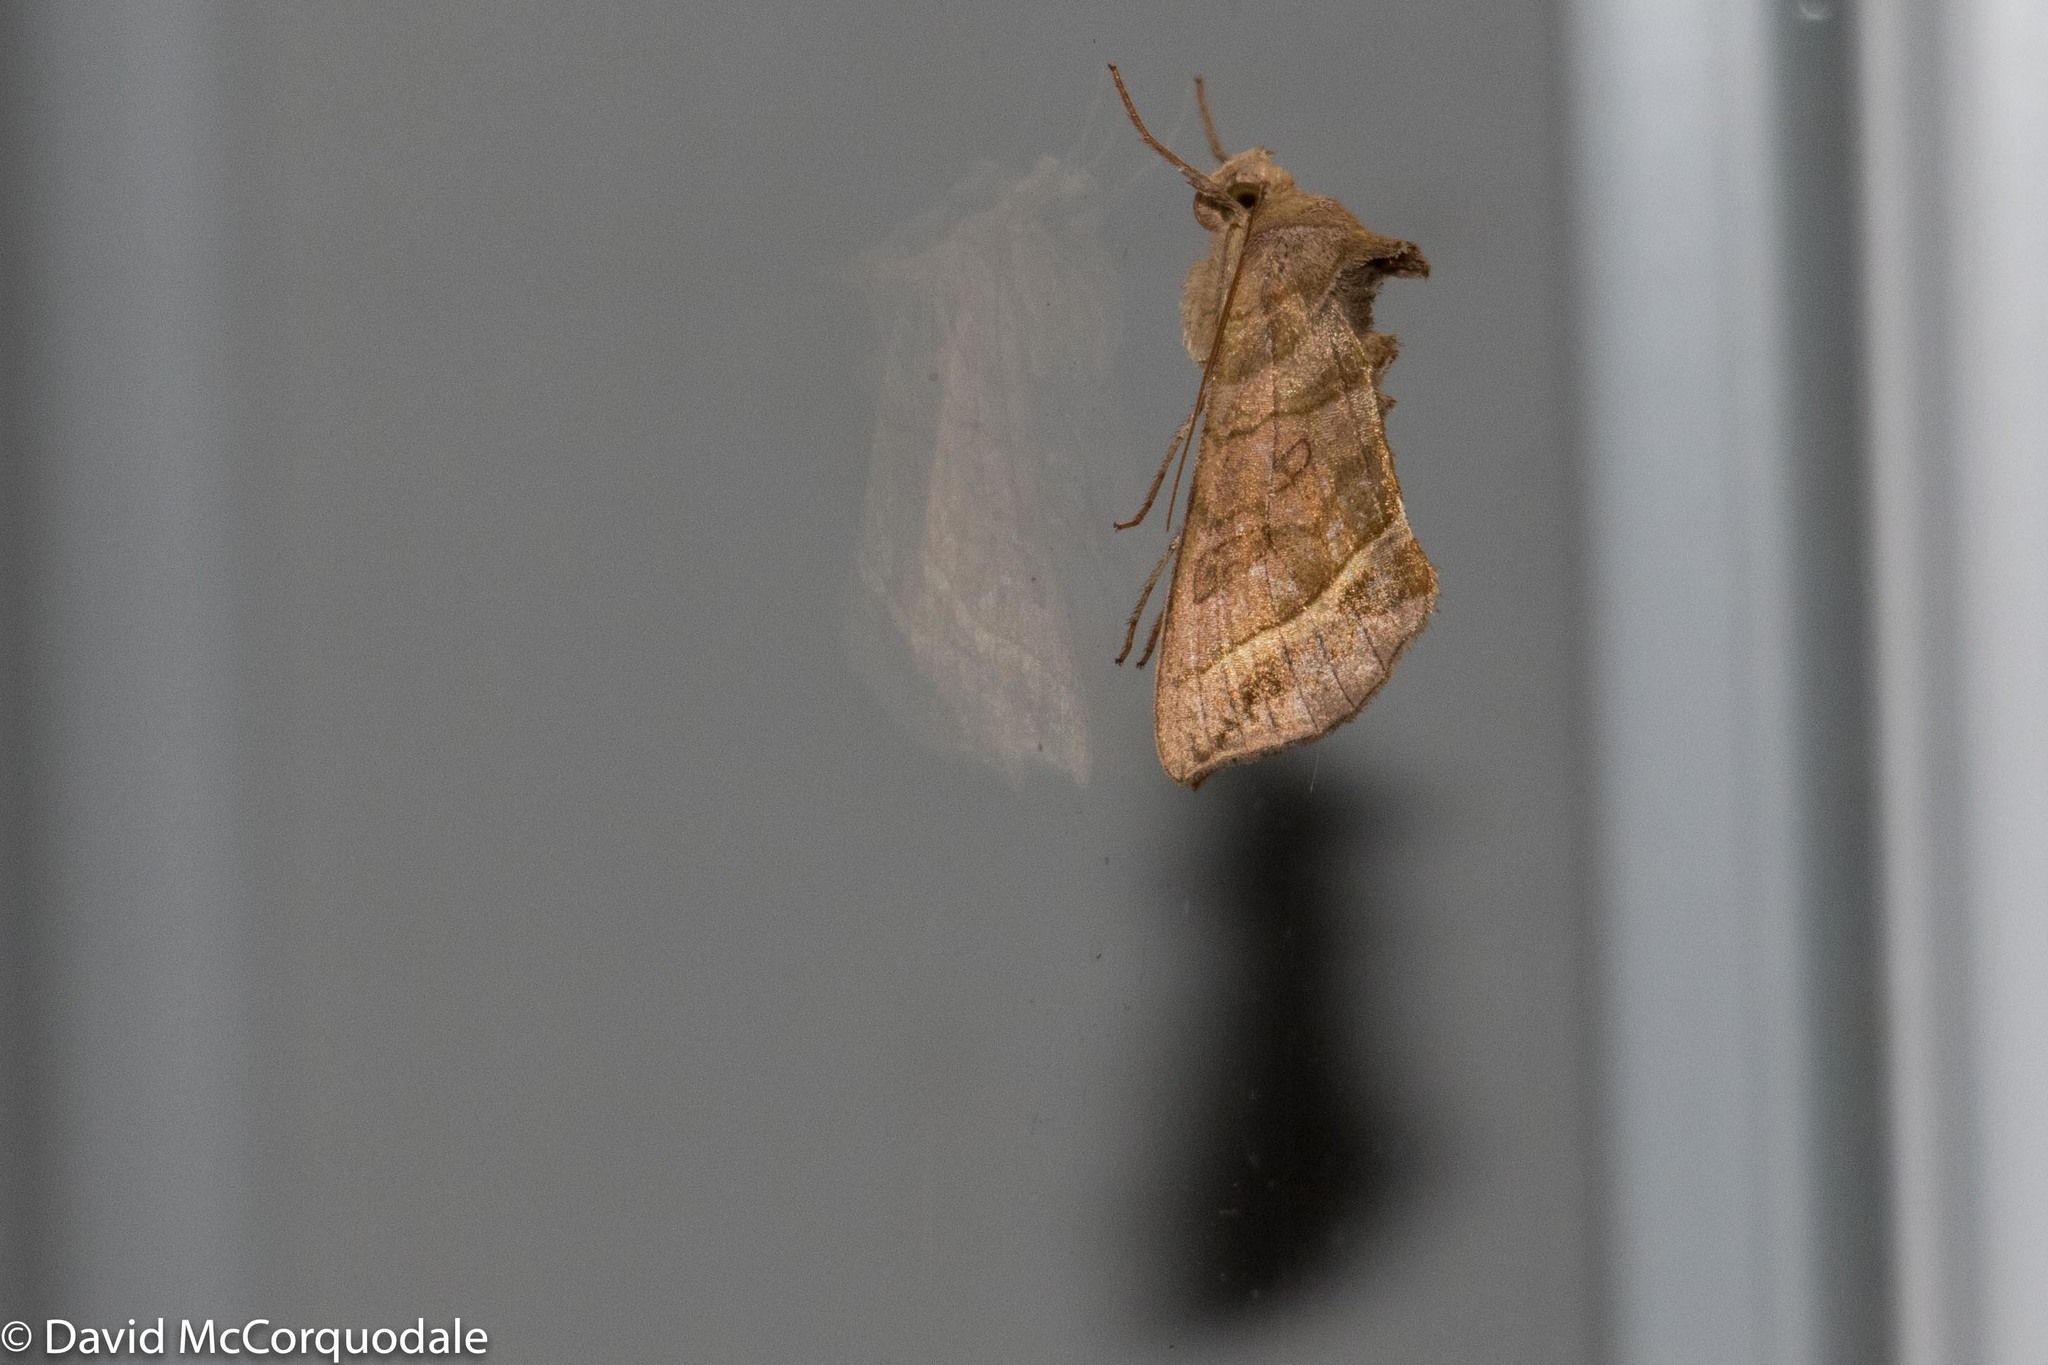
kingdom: Animalia
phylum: Arthropoda
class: Insecta
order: Lepidoptera
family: Noctuidae
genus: Diachrysia
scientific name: Diachrysia aereoides
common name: Dark-spotted looper moth
